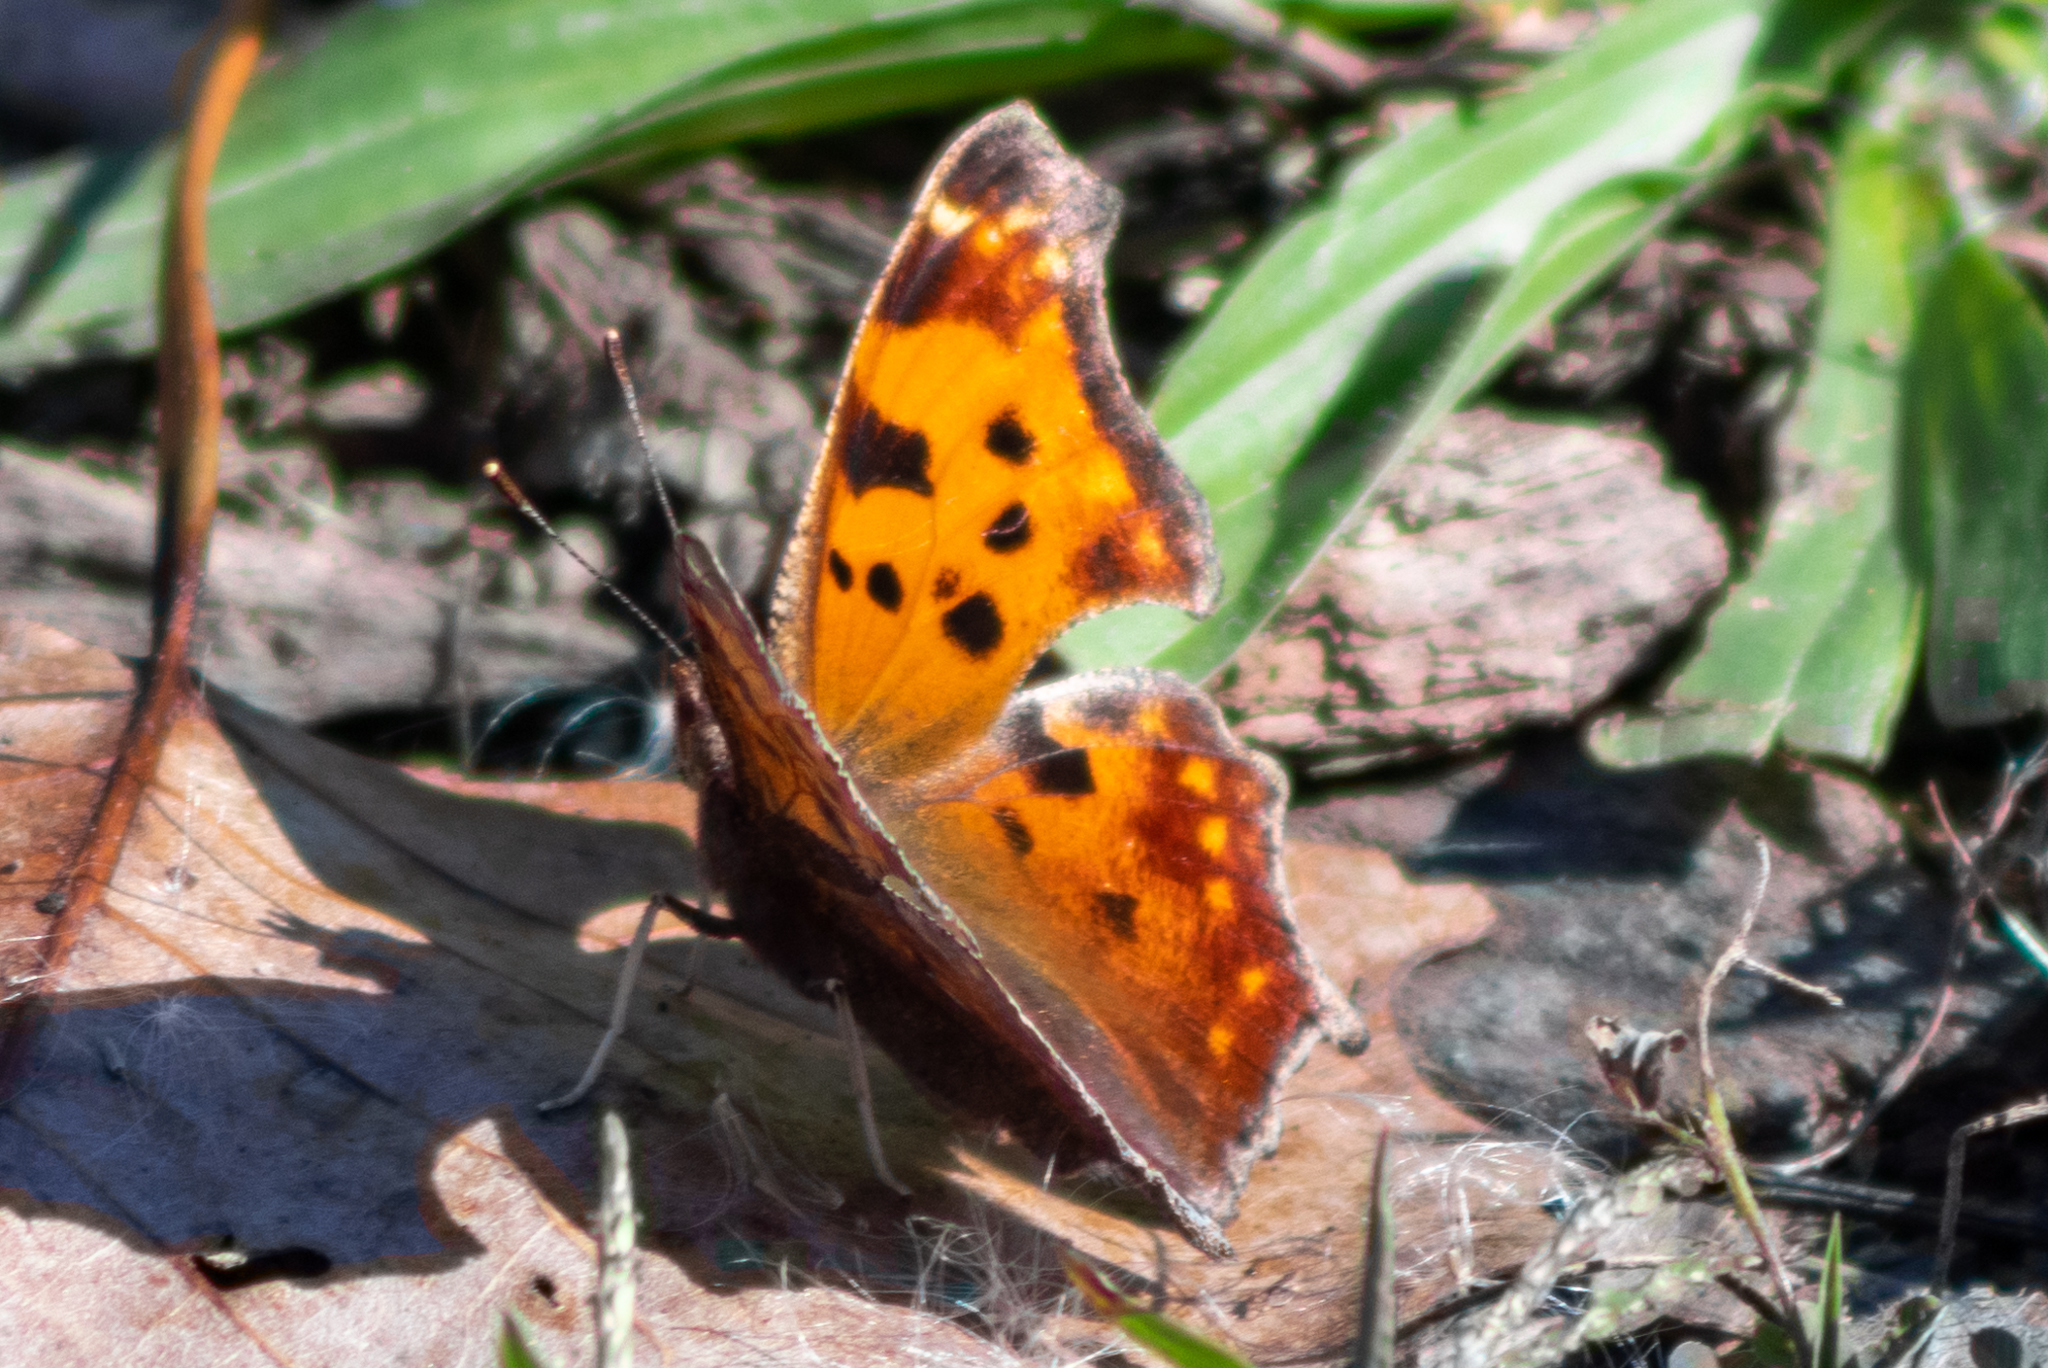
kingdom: Animalia
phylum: Arthropoda
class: Insecta
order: Lepidoptera
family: Nymphalidae
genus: Polygonia
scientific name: Polygonia comma
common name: Eastern comma
